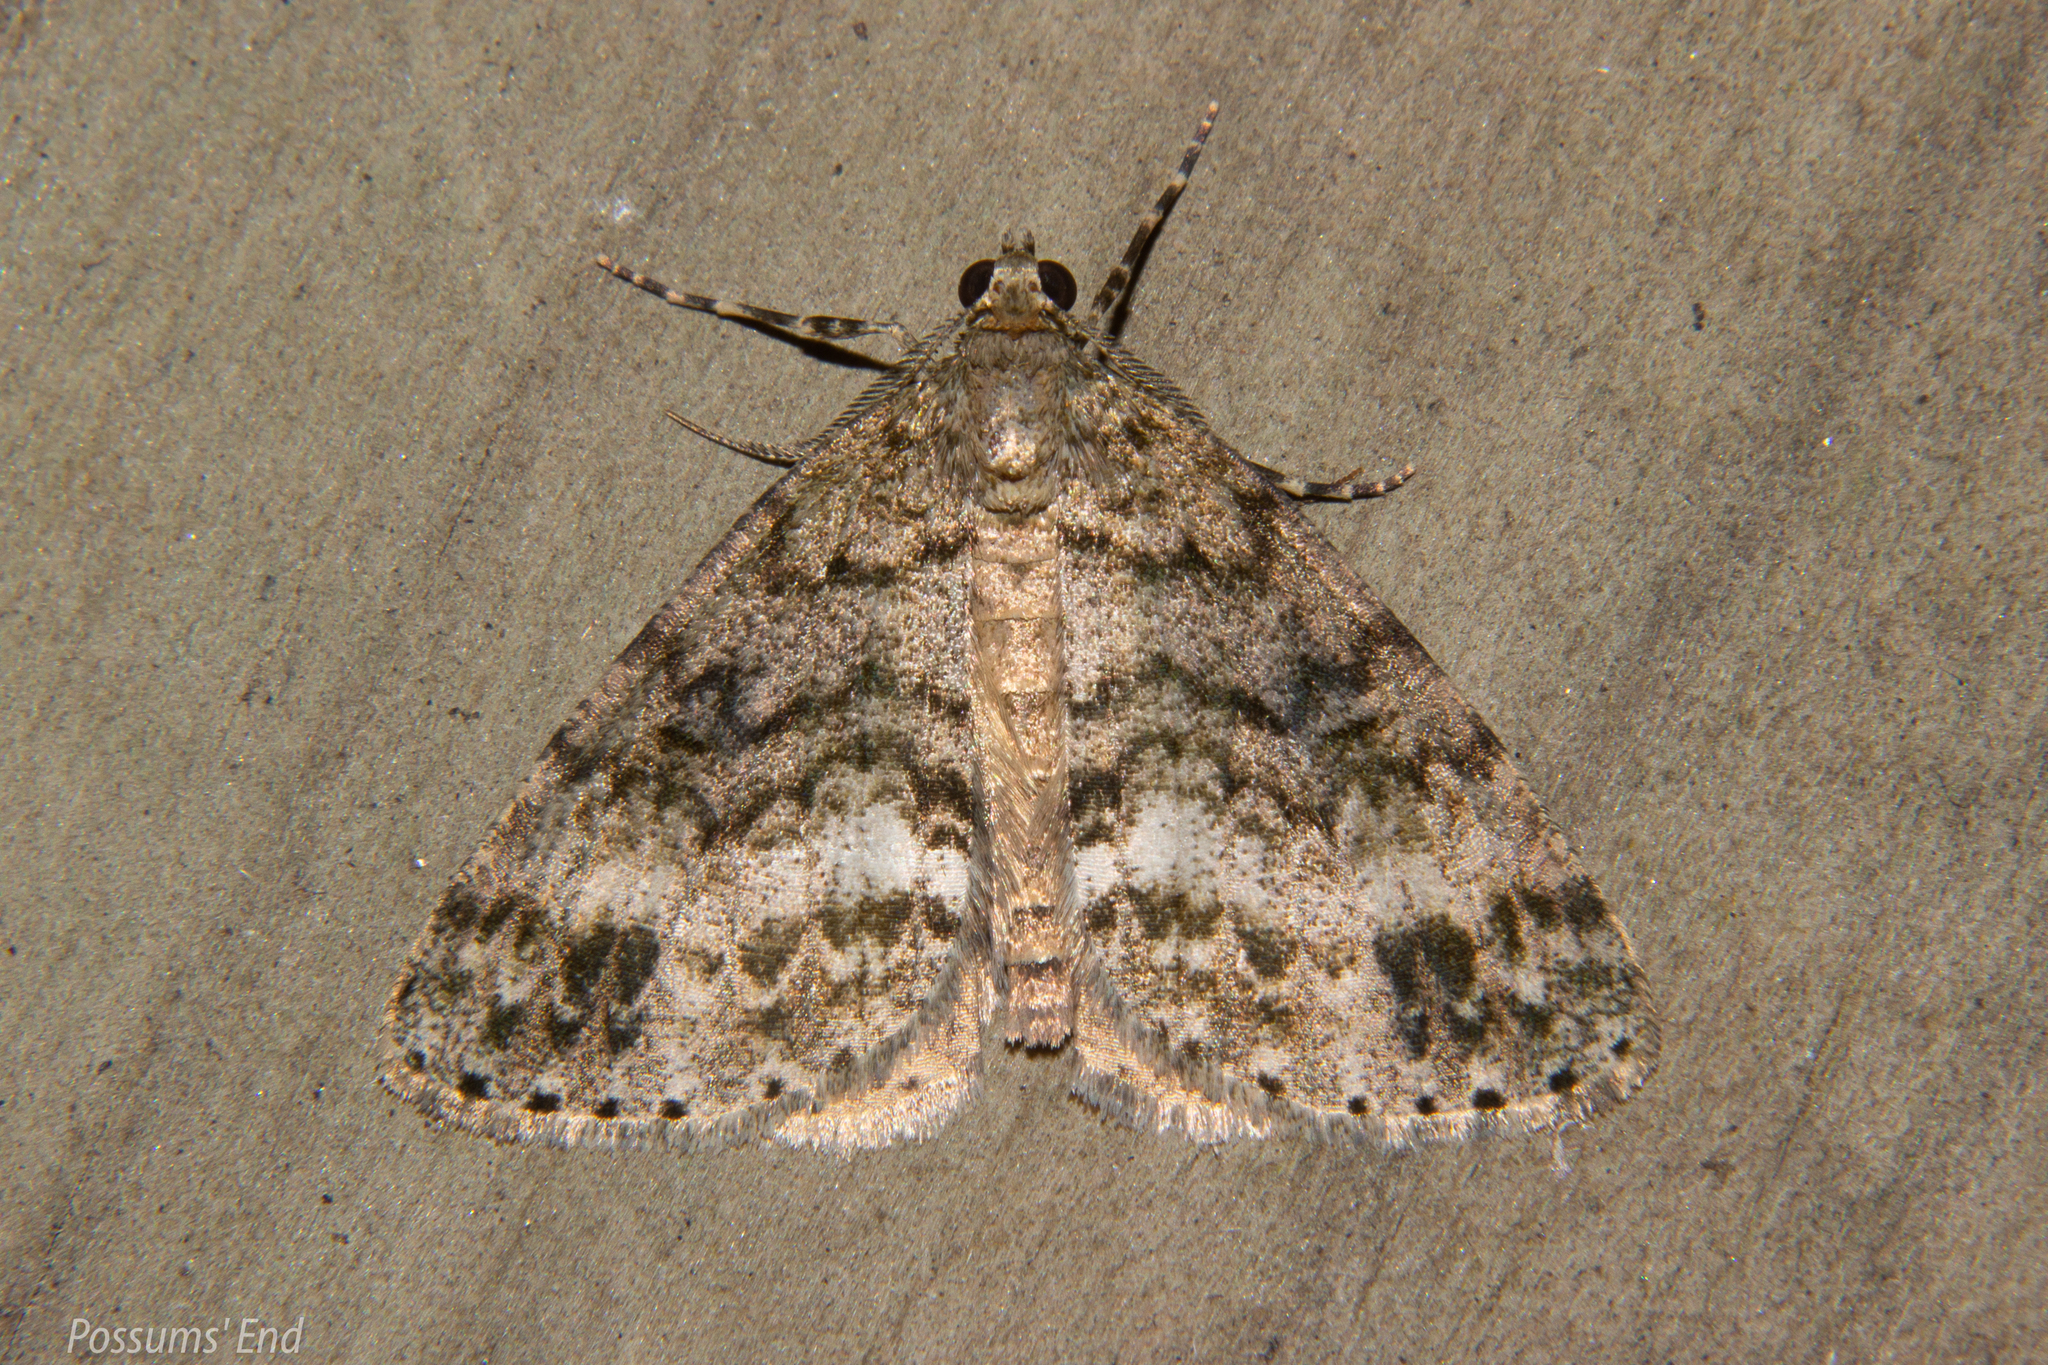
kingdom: Animalia
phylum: Arthropoda
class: Insecta
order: Lepidoptera
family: Geometridae
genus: Pseudocoremia
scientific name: Pseudocoremia indistincta
